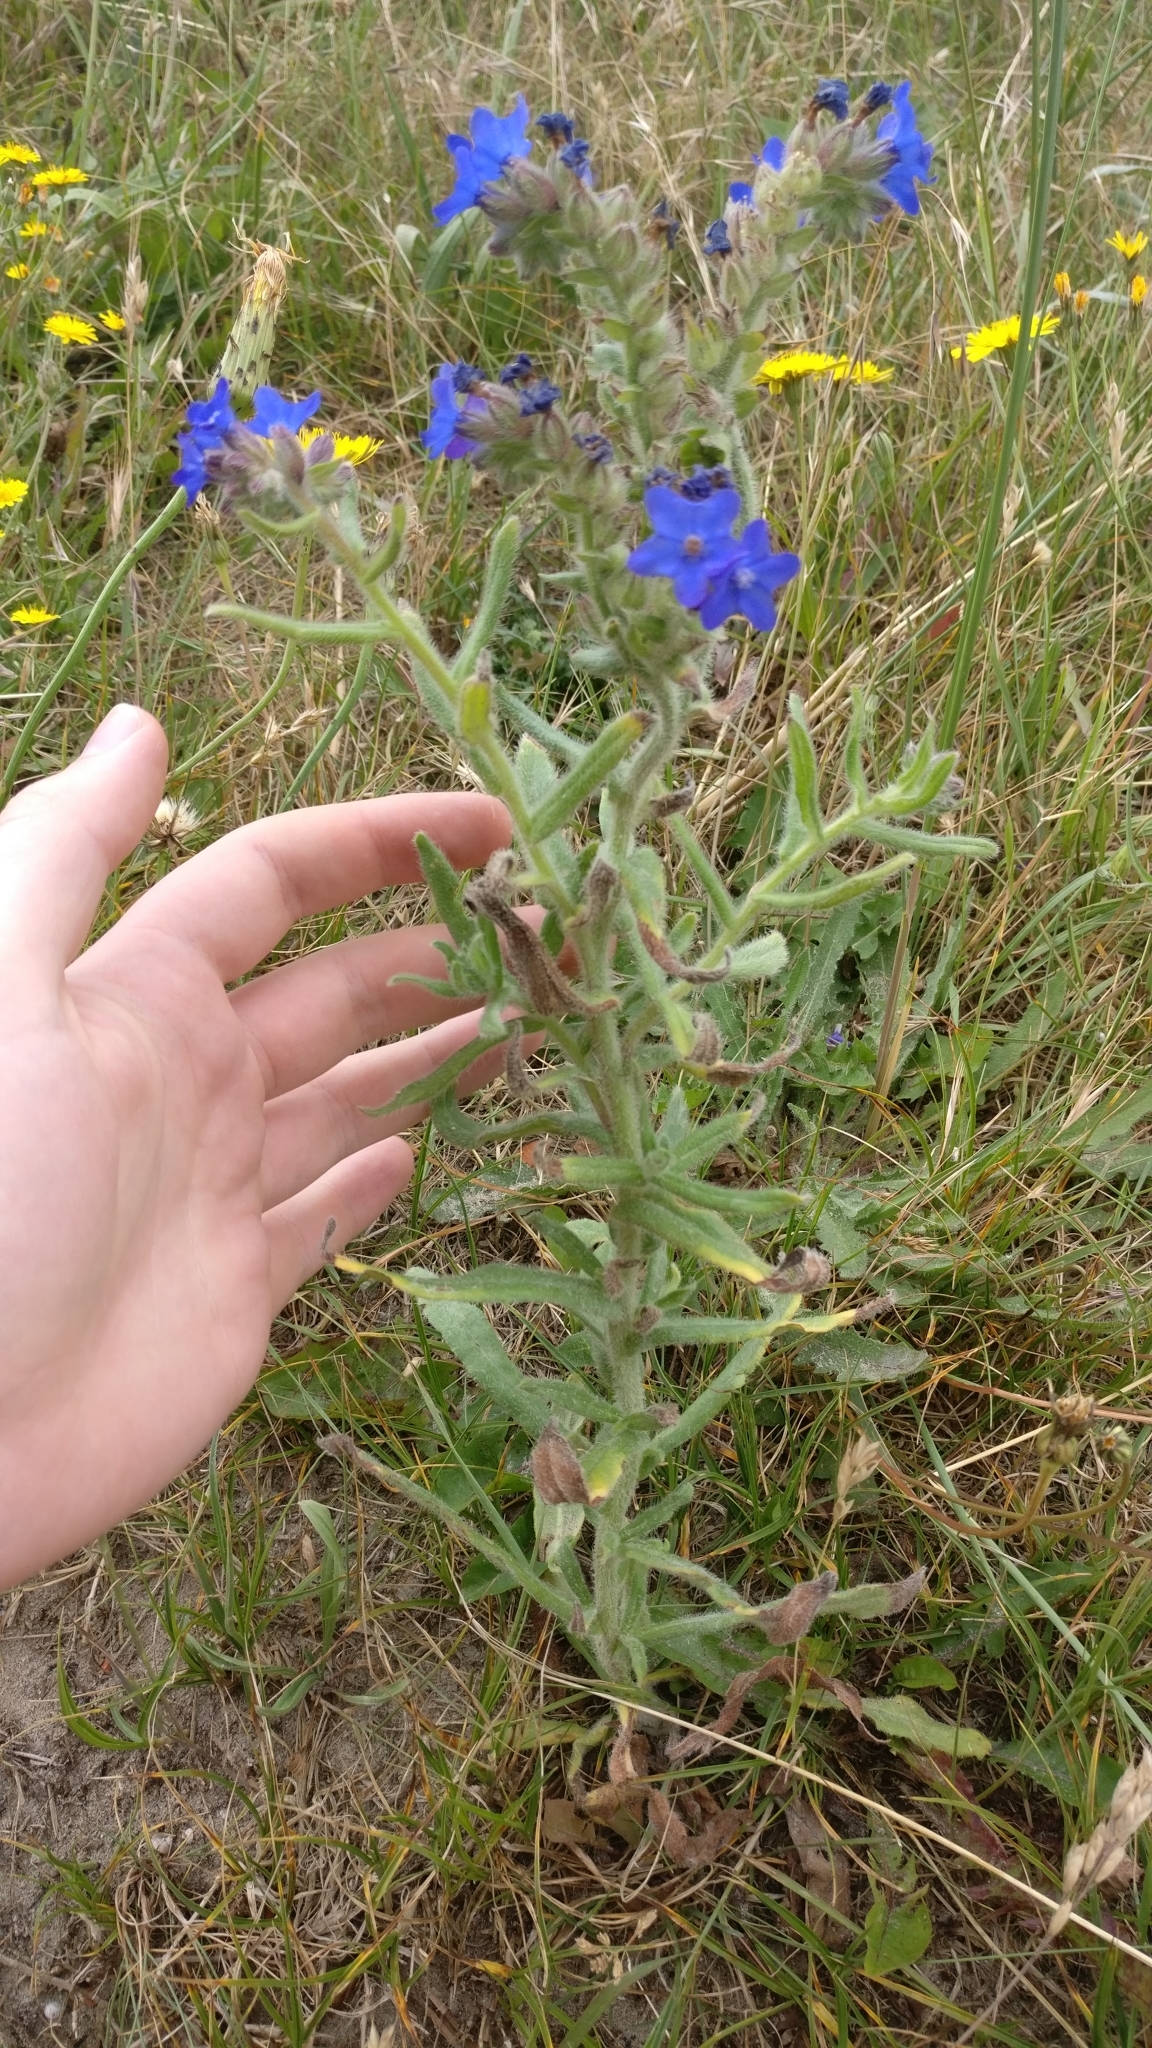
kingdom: Plantae
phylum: Tracheophyta
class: Magnoliopsida
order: Boraginales
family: Boraginaceae
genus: Anchusa
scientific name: Anchusa officinalis
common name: Alkanet
